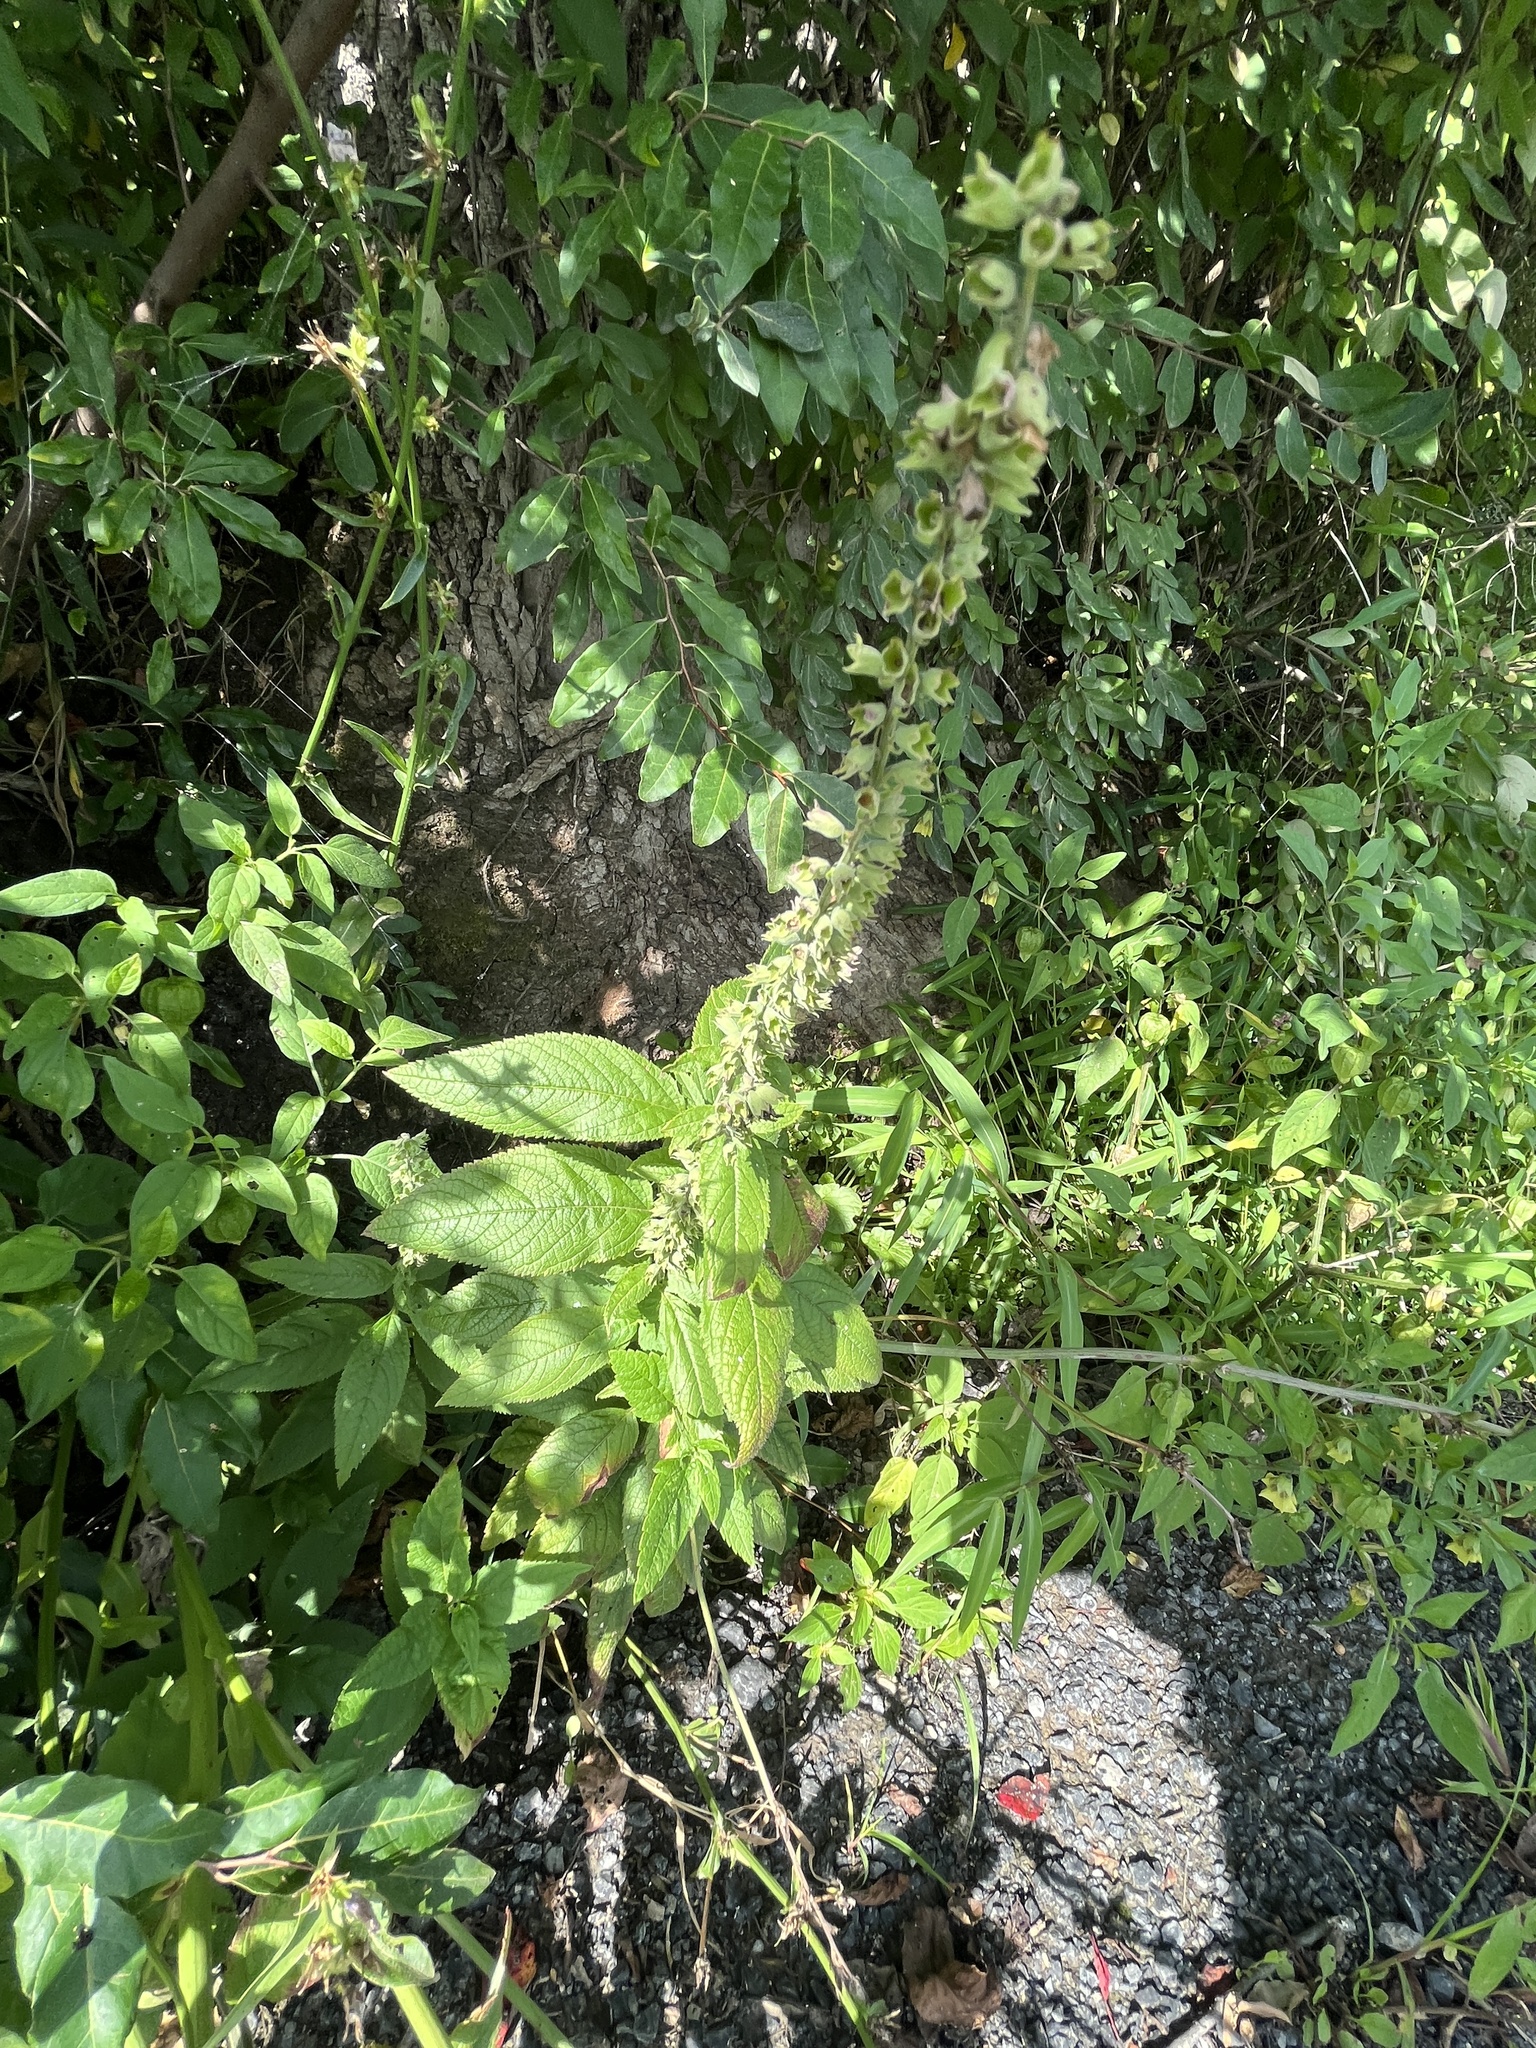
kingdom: Plantae
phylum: Tracheophyta
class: Magnoliopsida
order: Lamiales
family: Lamiaceae
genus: Teucrium
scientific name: Teucrium canadense
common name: American germander
